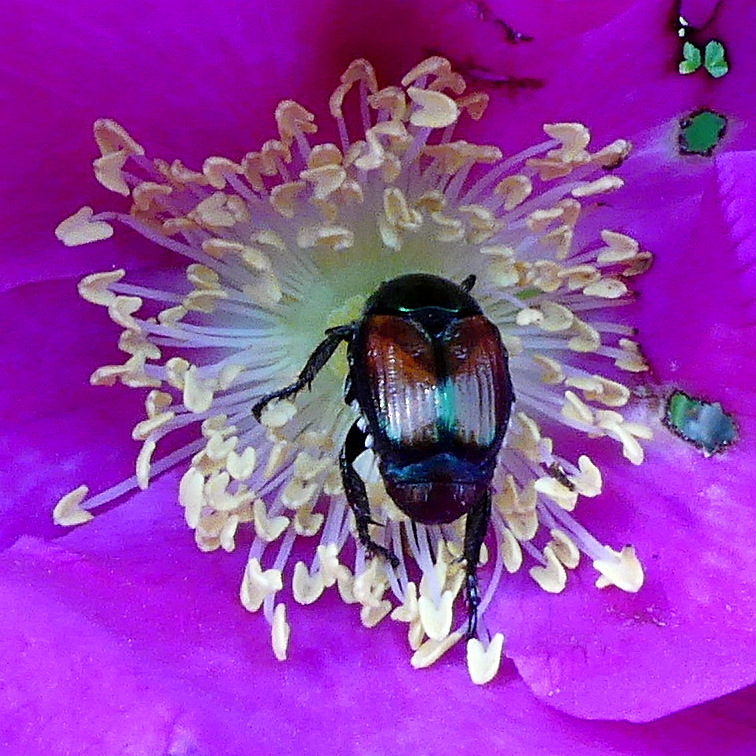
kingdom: Animalia
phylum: Arthropoda
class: Insecta
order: Coleoptera
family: Scarabaeidae
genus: Popillia
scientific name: Popillia japonica
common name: Japanese beetle
